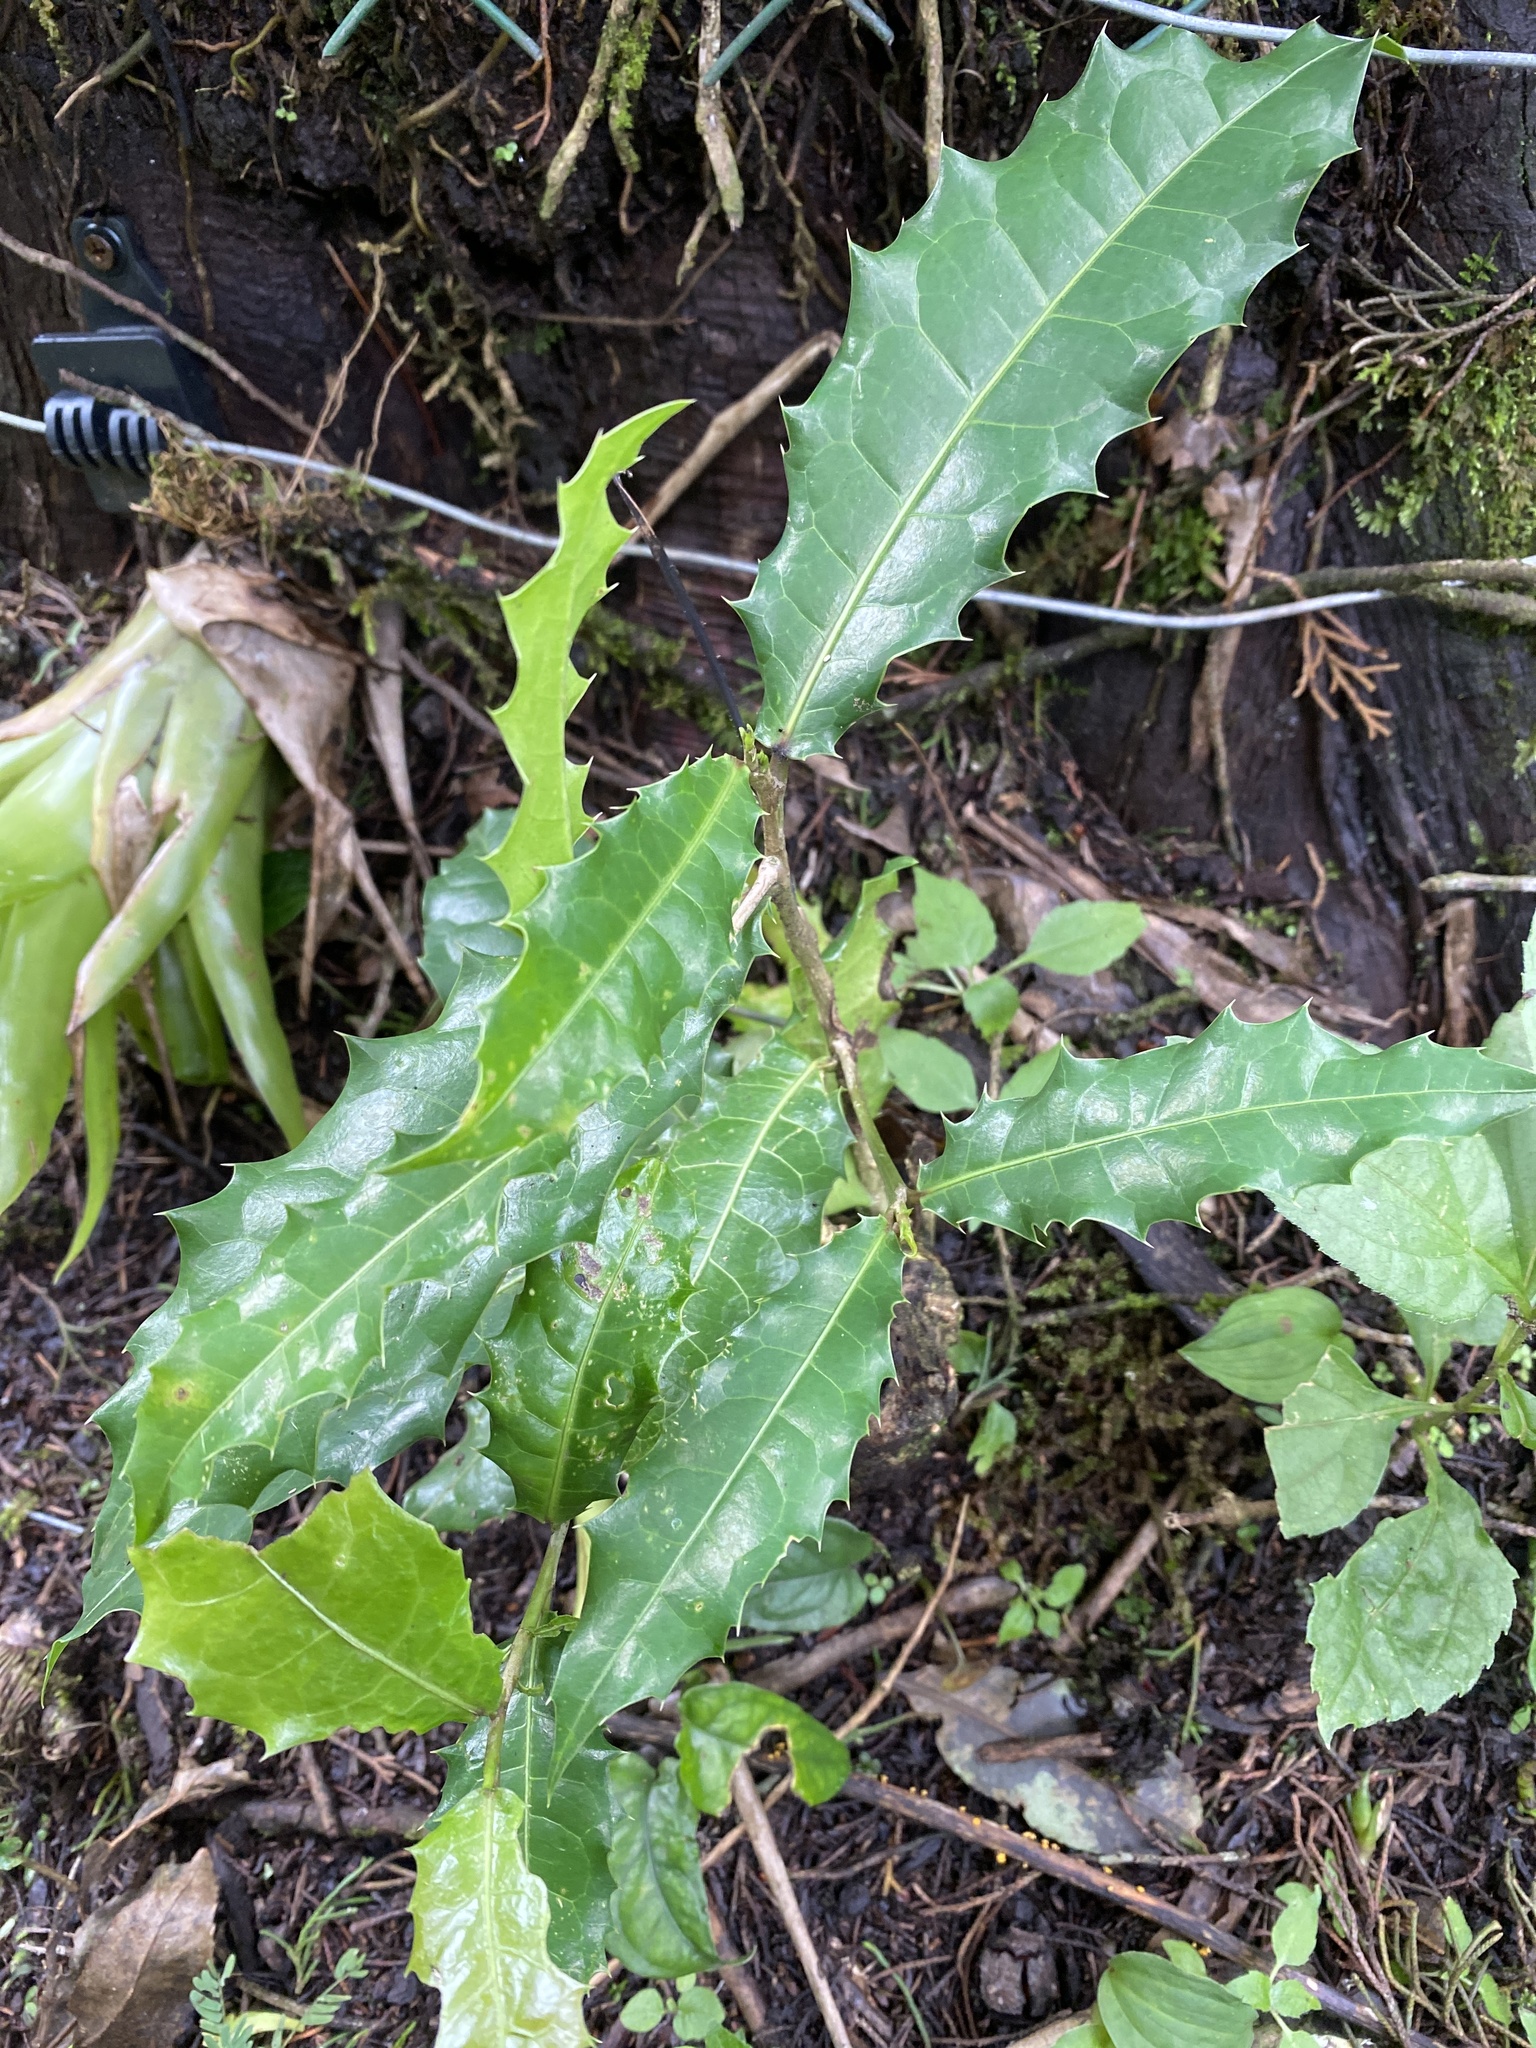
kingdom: Plantae
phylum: Tracheophyta
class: Magnoliopsida
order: Malpighiales
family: Salicaceae
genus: Olmediella
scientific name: Olmediella betschleriana
